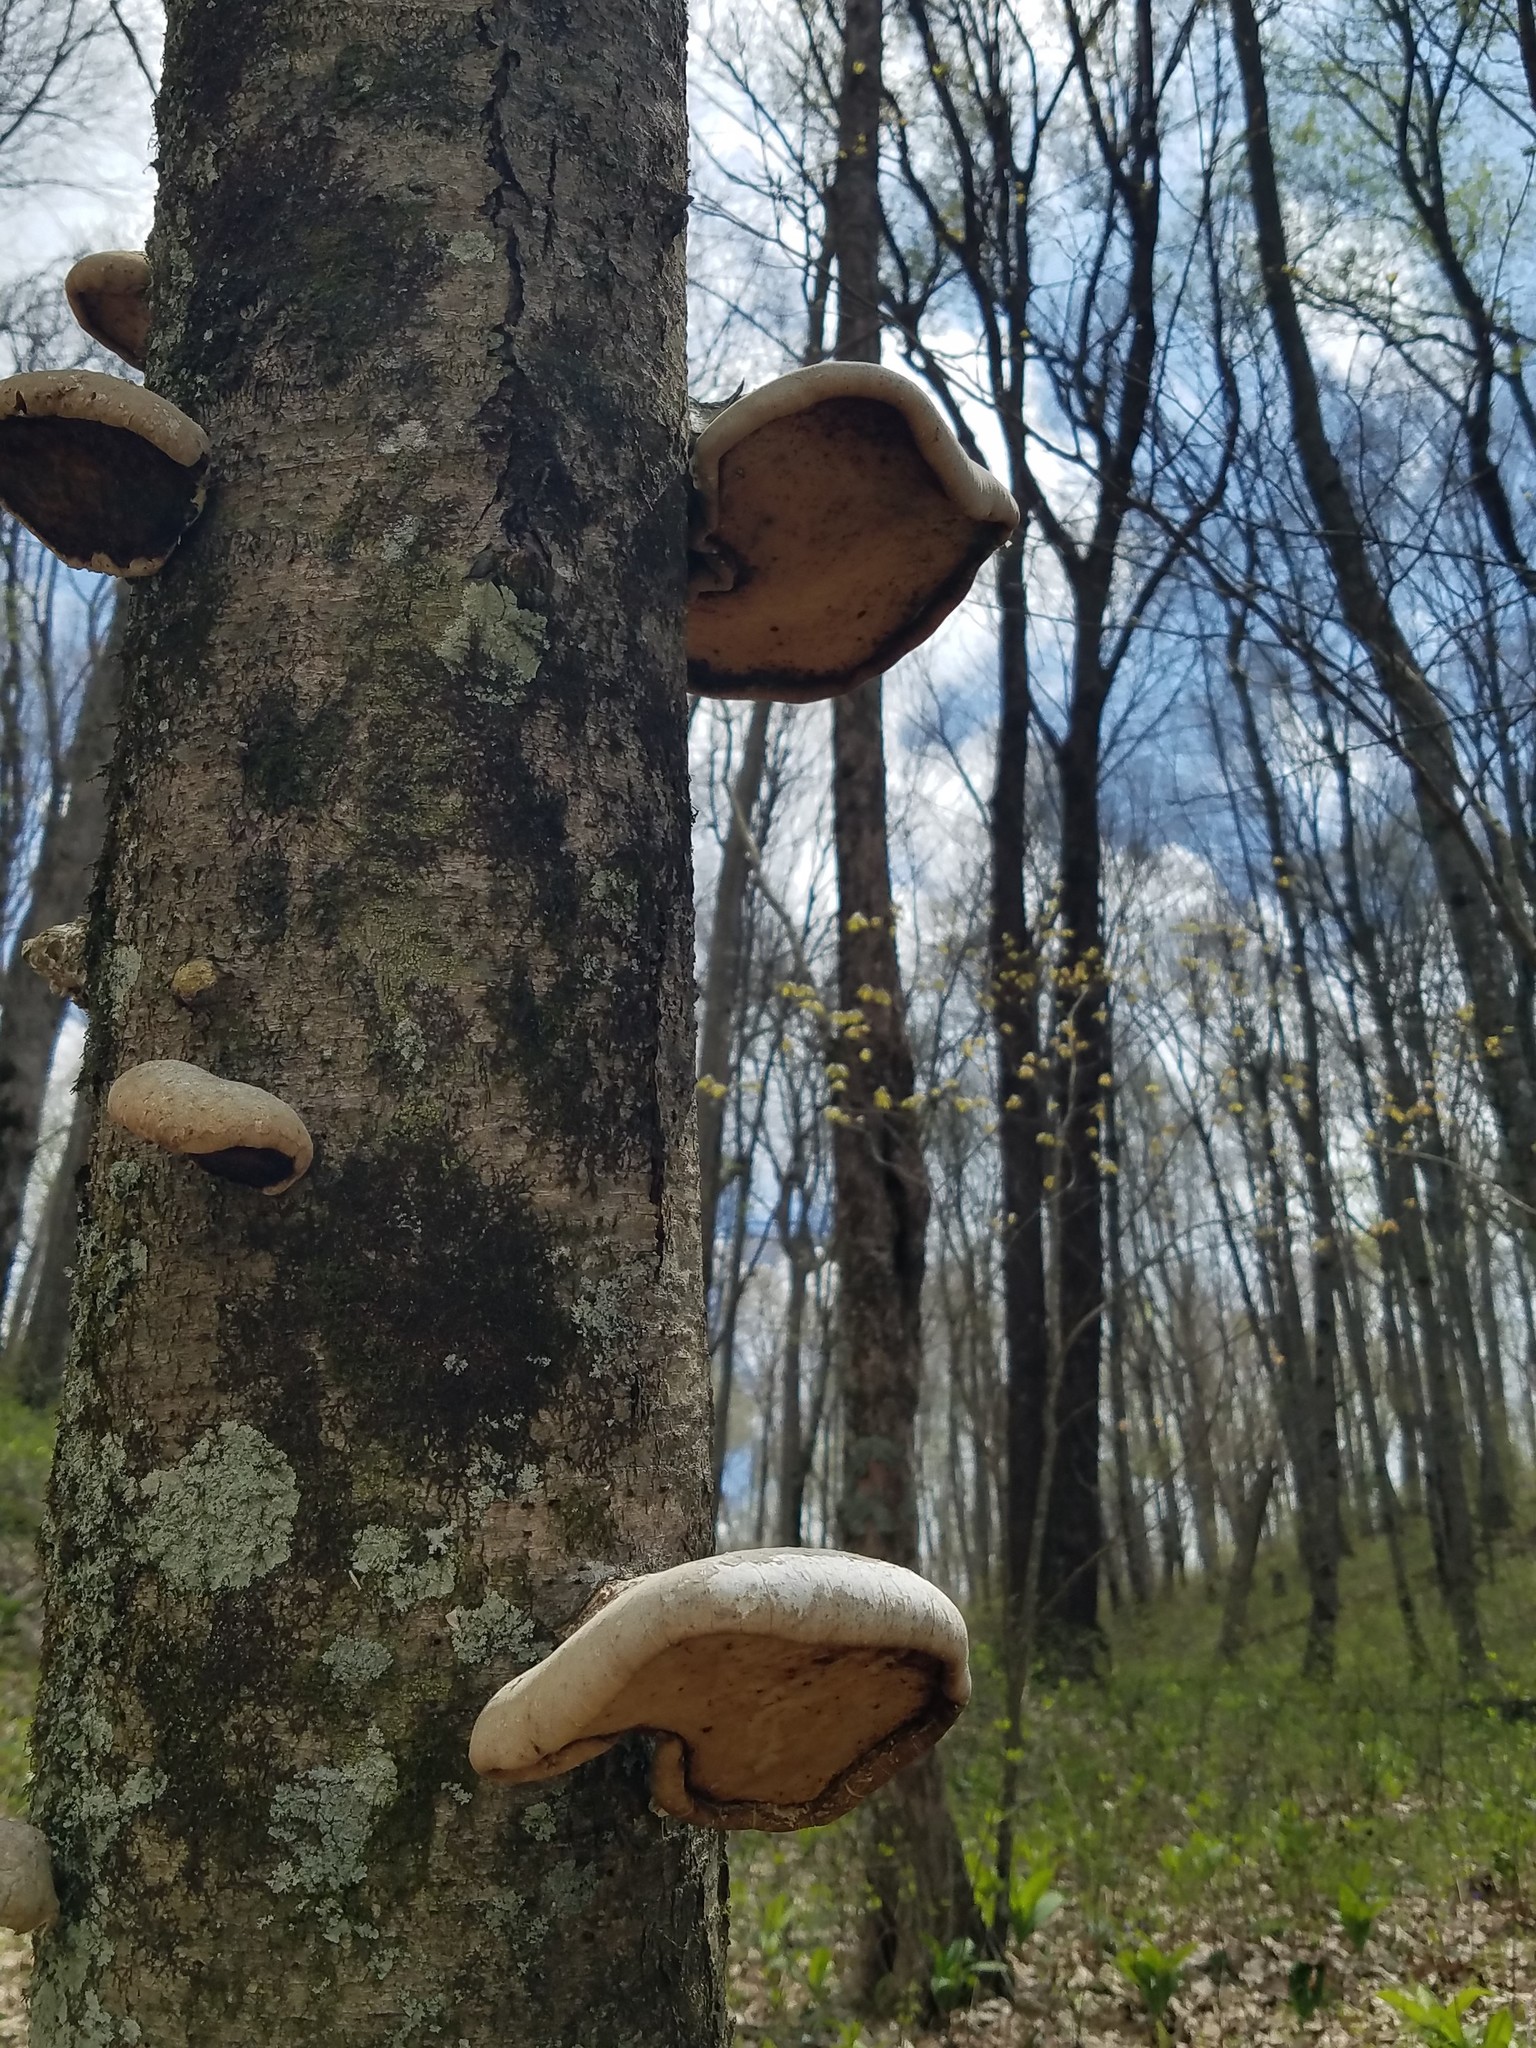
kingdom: Fungi
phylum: Basidiomycota
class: Agaricomycetes
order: Polyporales
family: Fomitopsidaceae
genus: Fomitopsis
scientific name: Fomitopsis betulina
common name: Birch polypore
